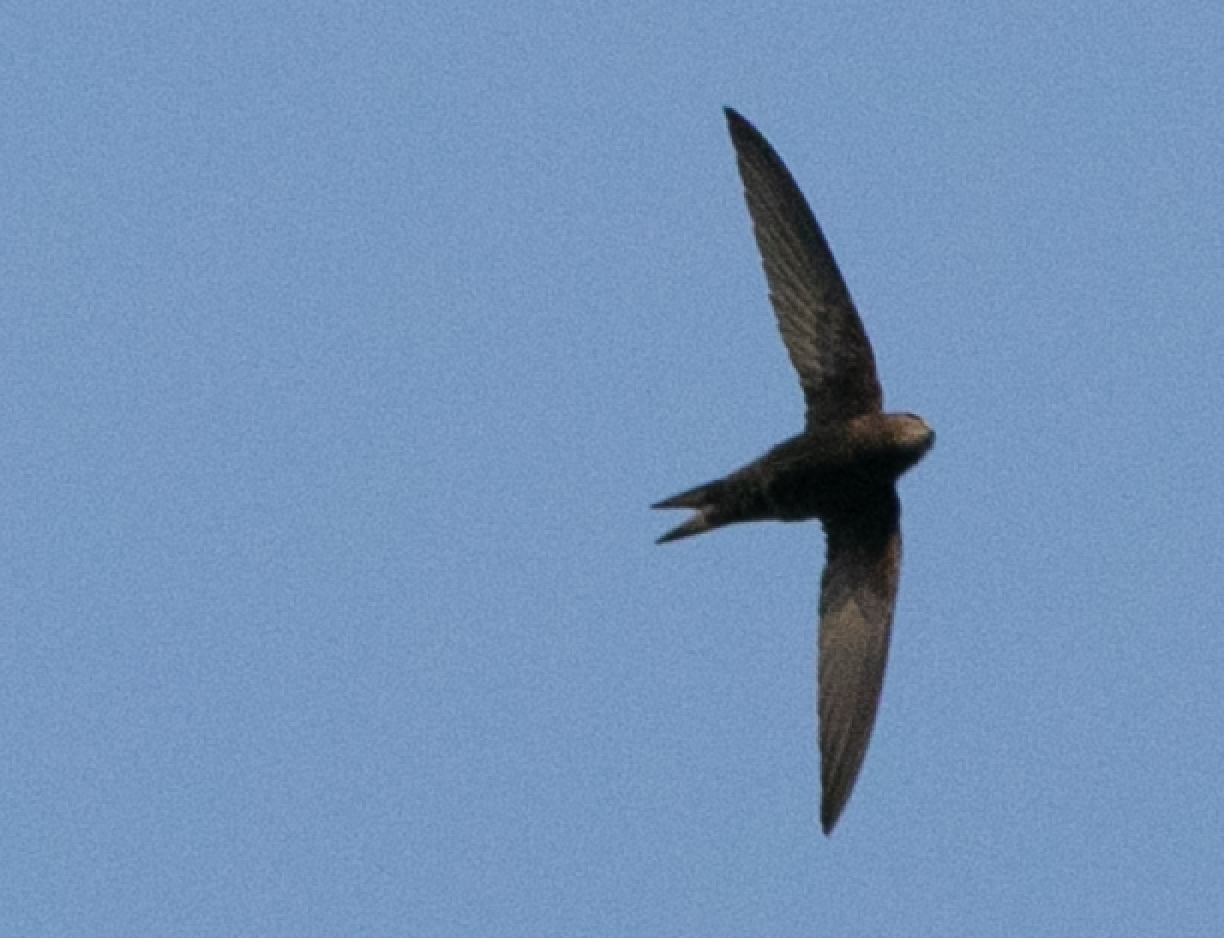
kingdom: Animalia
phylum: Chordata
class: Aves
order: Apodiformes
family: Apodidae
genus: Apus
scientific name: Apus apus
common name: Common swift
